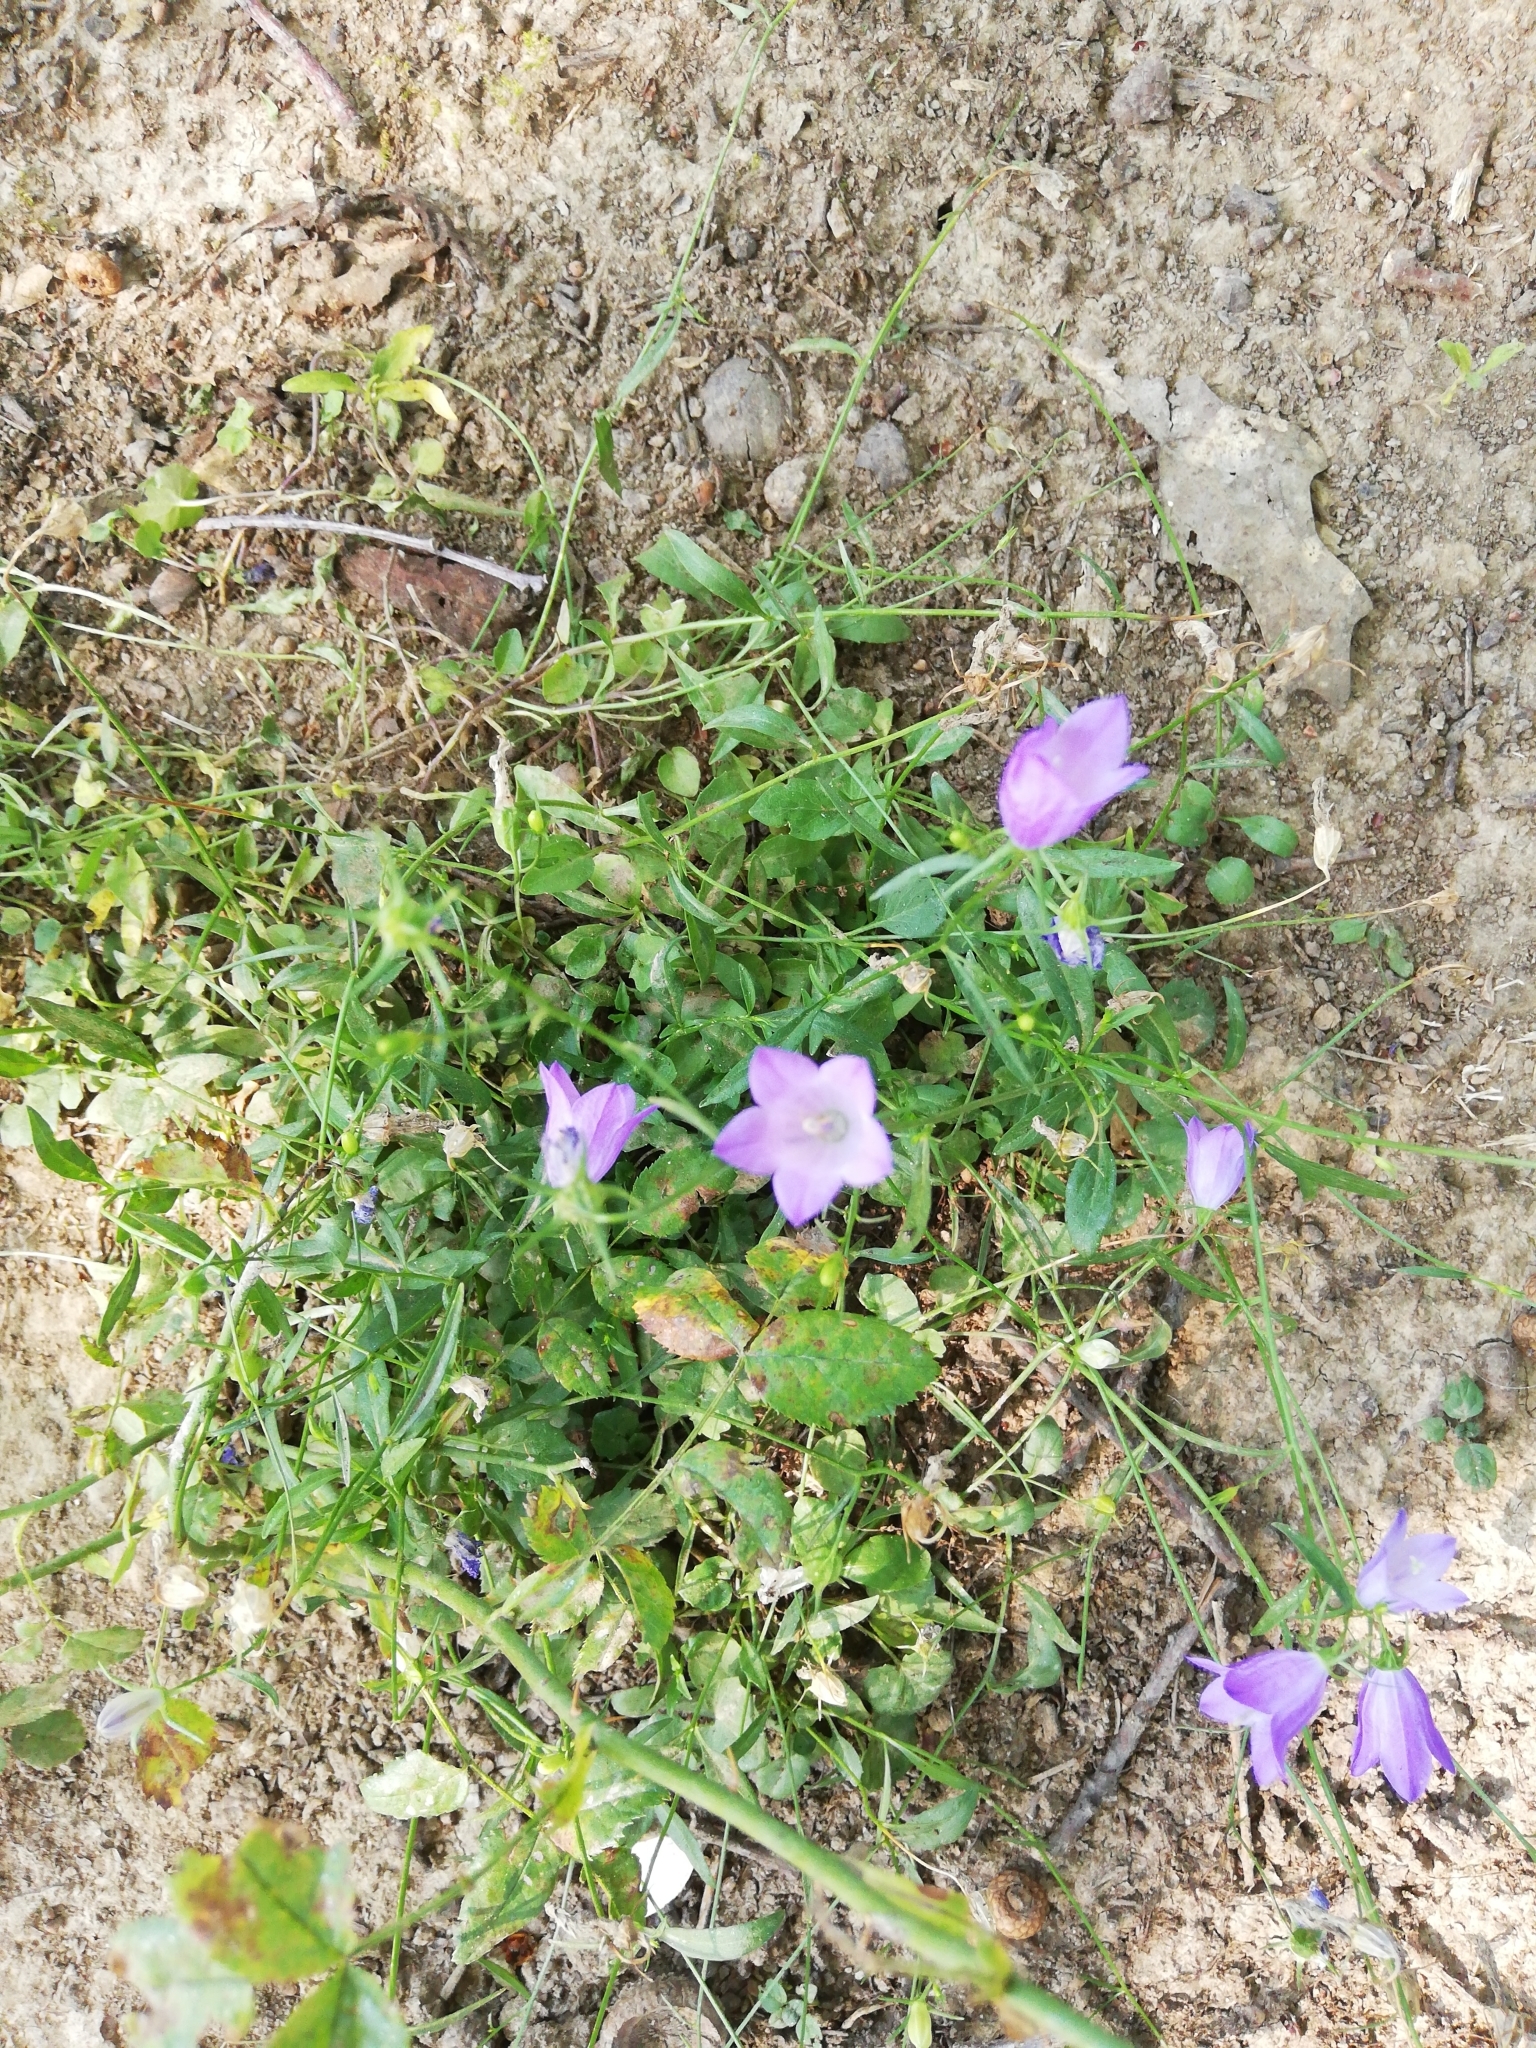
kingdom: Plantae
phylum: Tracheophyta
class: Magnoliopsida
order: Asterales
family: Campanulaceae
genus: Campanula
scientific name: Campanula rotundifolia
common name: Harebell
